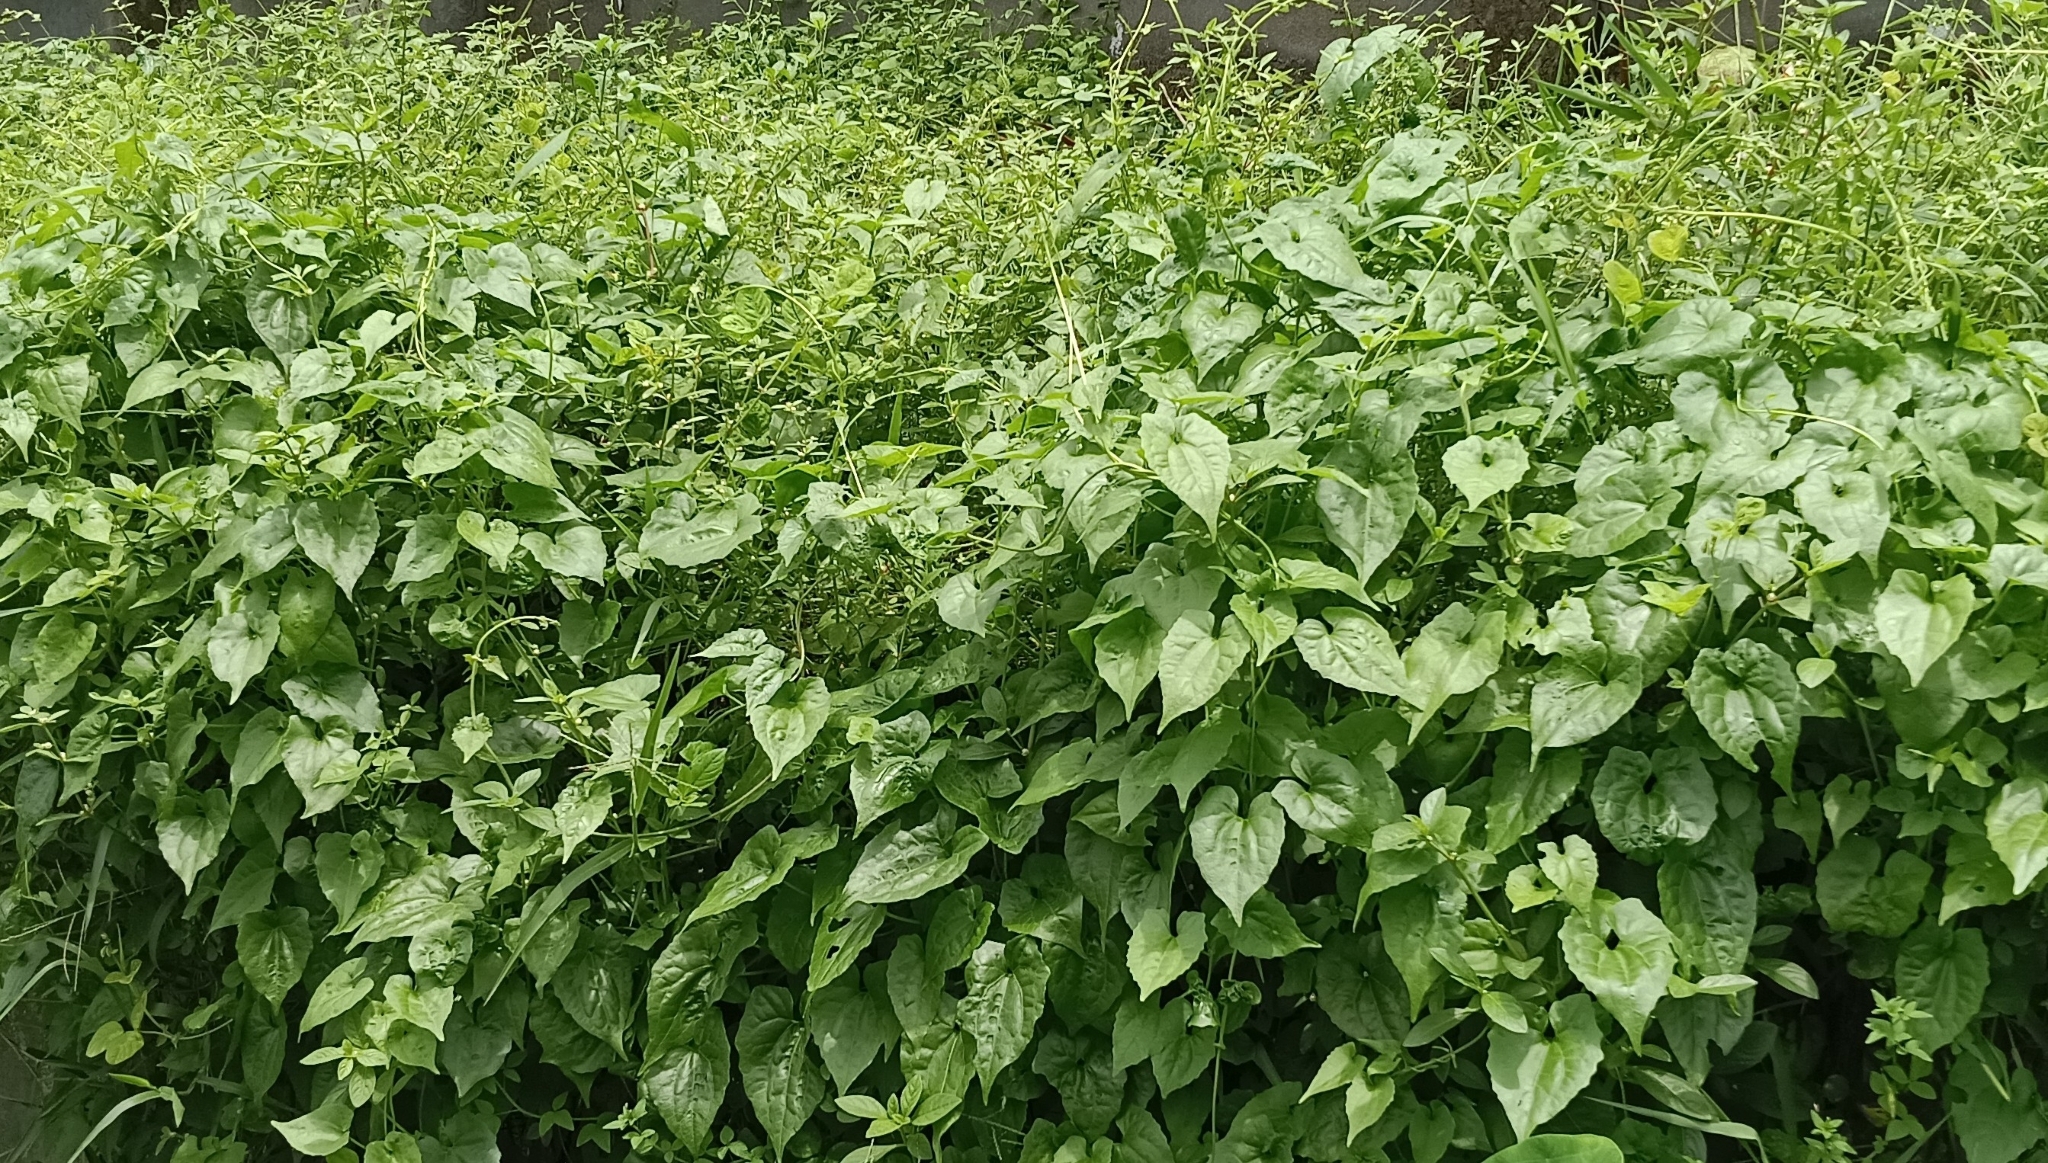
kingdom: Plantae
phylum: Tracheophyta
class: Magnoliopsida
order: Asterales
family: Asteraceae
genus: Mikania
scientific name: Mikania micrantha
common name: Mile-a-minute
